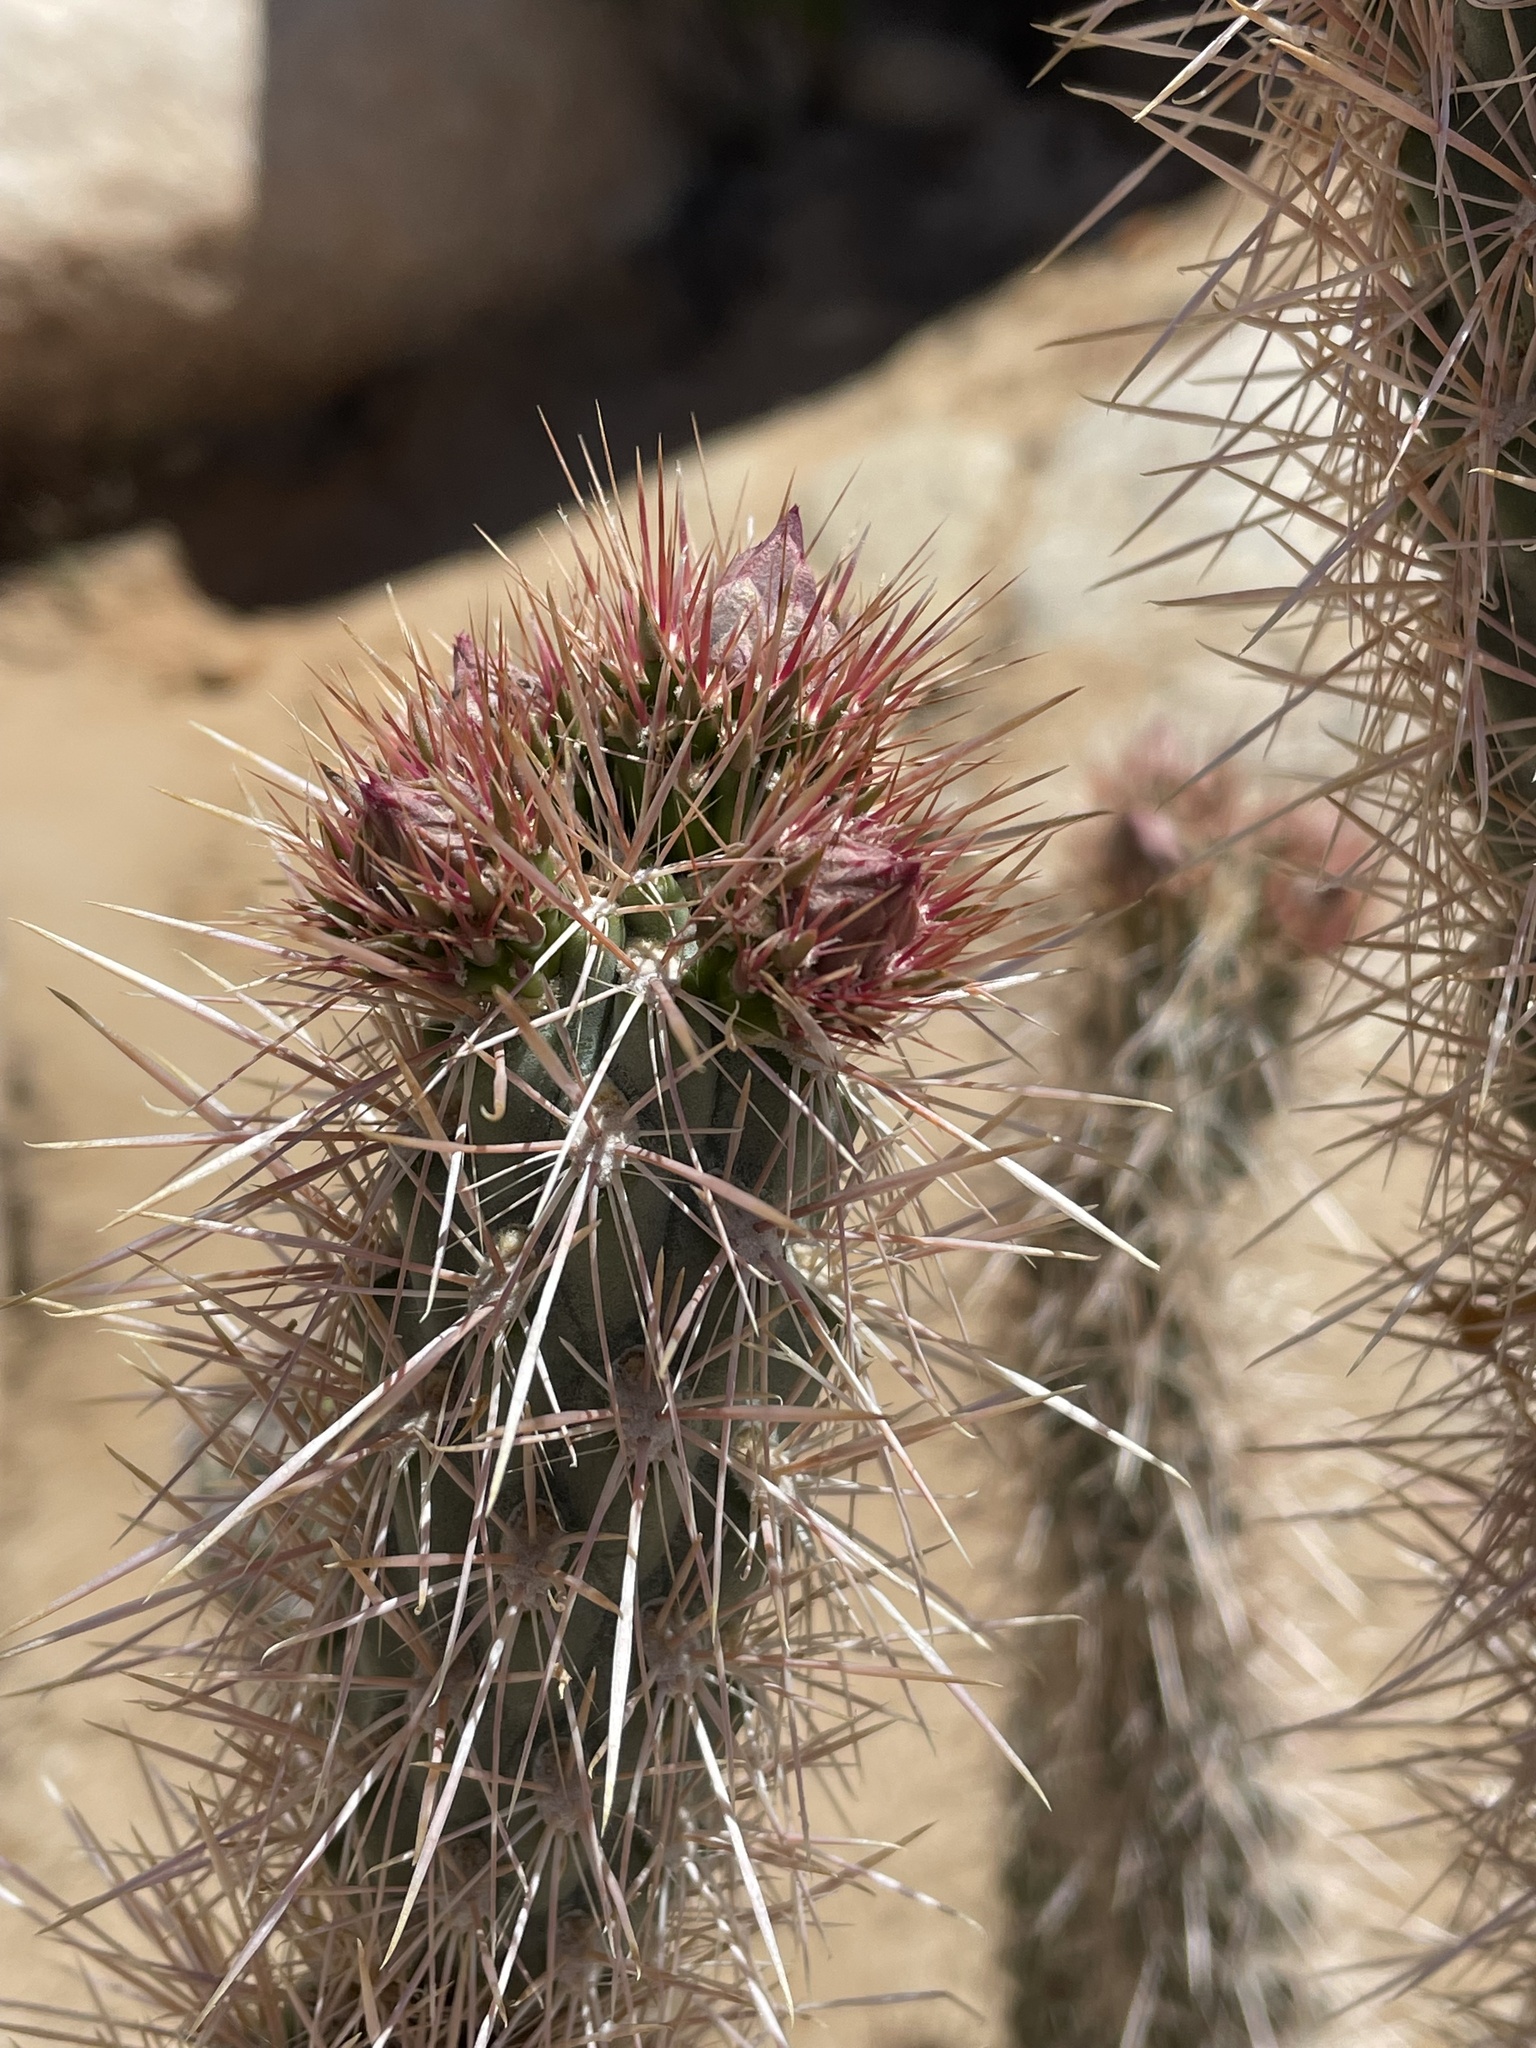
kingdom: Plantae
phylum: Tracheophyta
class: Magnoliopsida
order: Caryophyllales
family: Cactaceae
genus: Cylindropuntia
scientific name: Cylindropuntia ganderi
